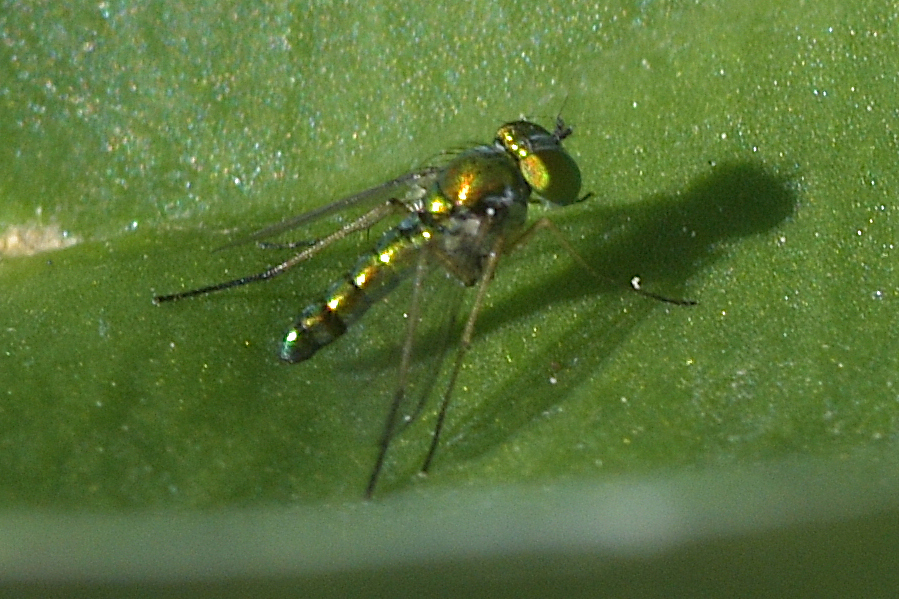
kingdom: Animalia
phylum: Arthropoda
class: Insecta
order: Diptera
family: Dolichopodidae
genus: Condylostylus
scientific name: Condylostylus flavipes
